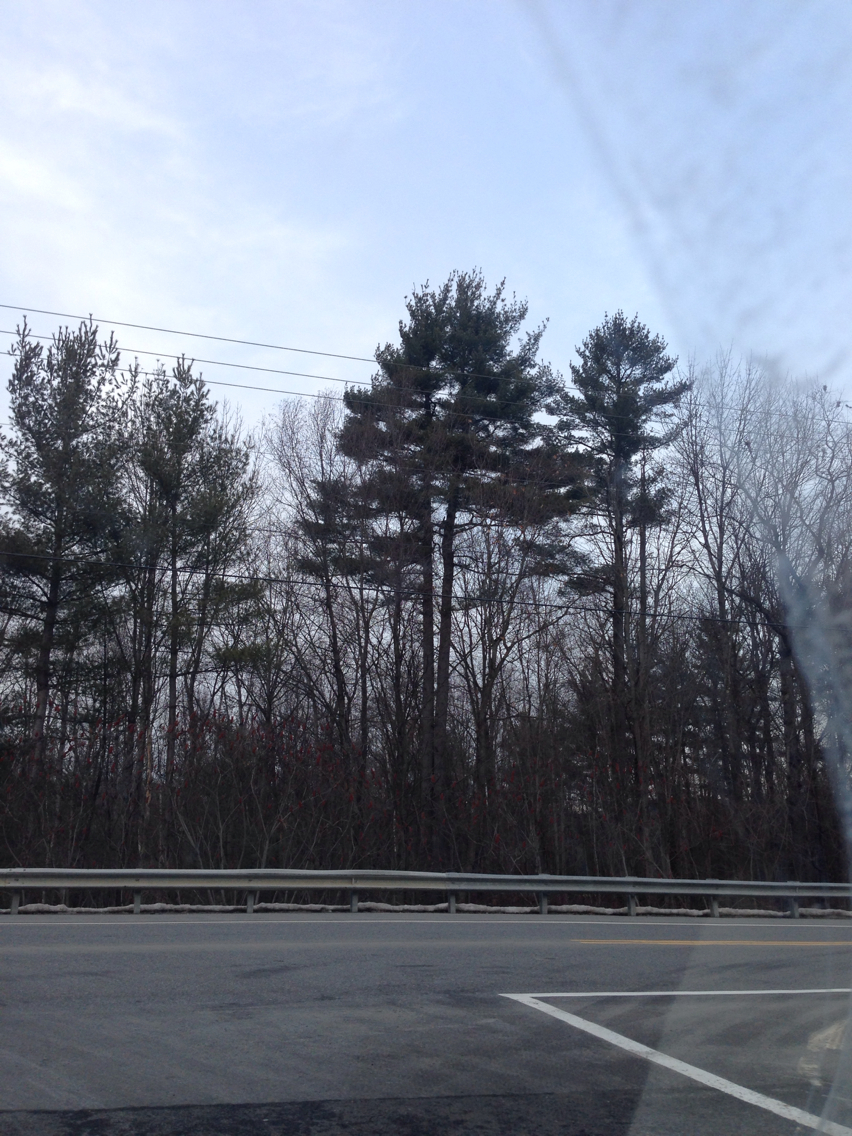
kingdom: Plantae
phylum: Tracheophyta
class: Pinopsida
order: Pinales
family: Pinaceae
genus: Pinus
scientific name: Pinus strobus
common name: Weymouth pine
